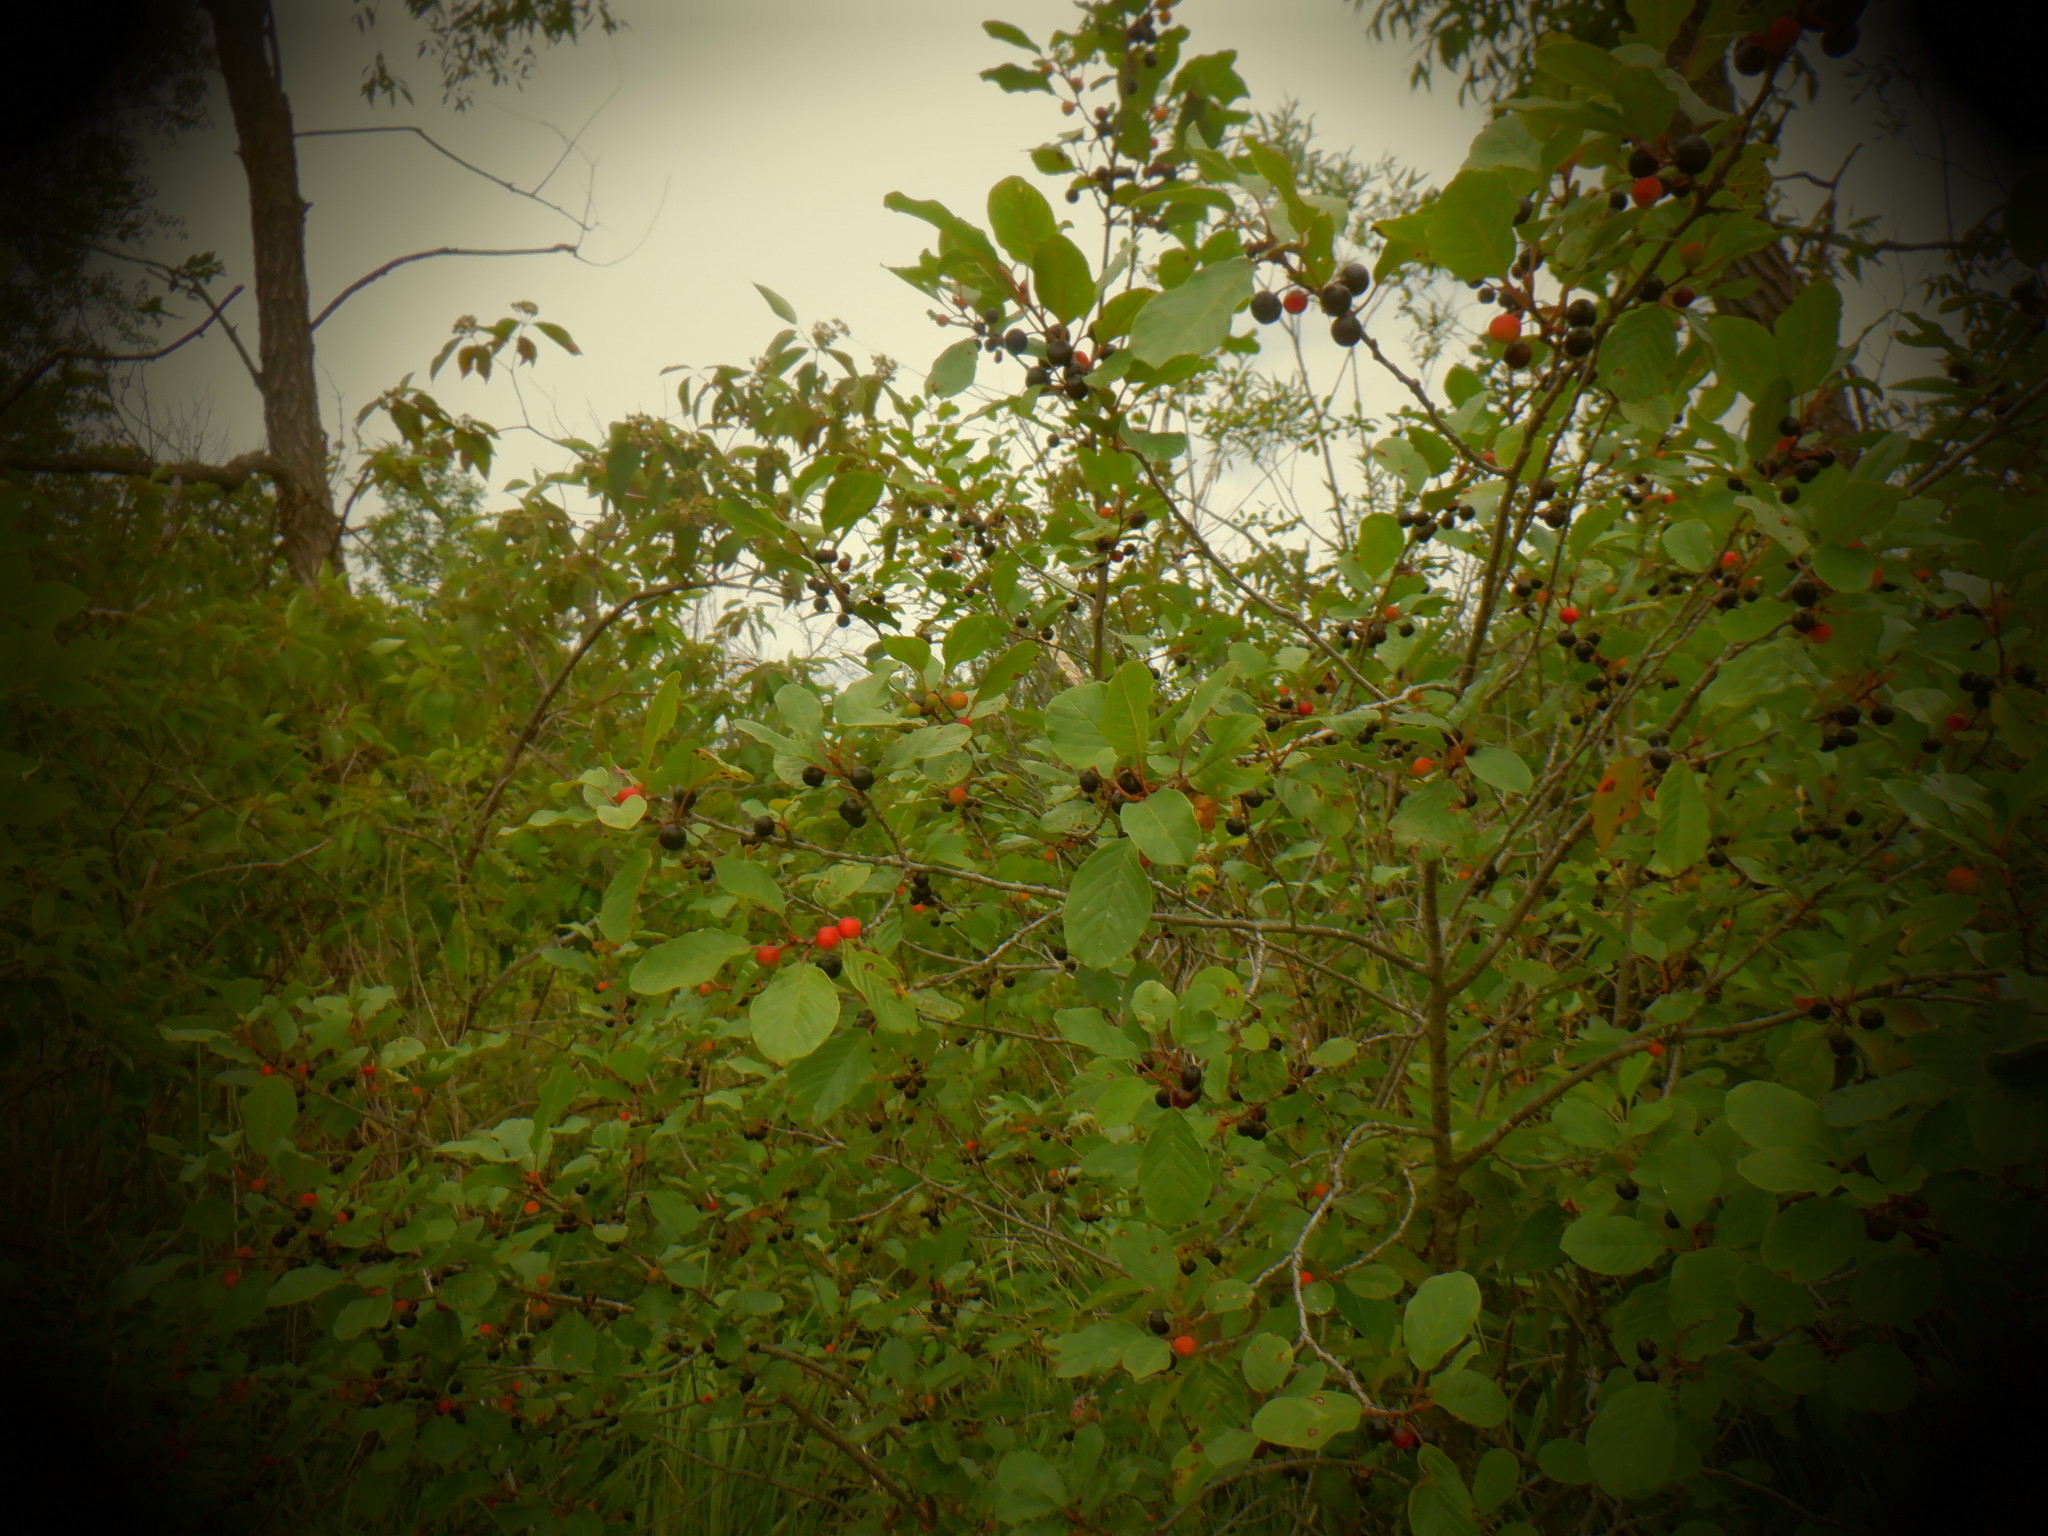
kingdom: Plantae
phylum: Tracheophyta
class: Magnoliopsida
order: Rosales
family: Rhamnaceae
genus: Frangula
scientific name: Frangula alnus
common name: Alder buckthorn
